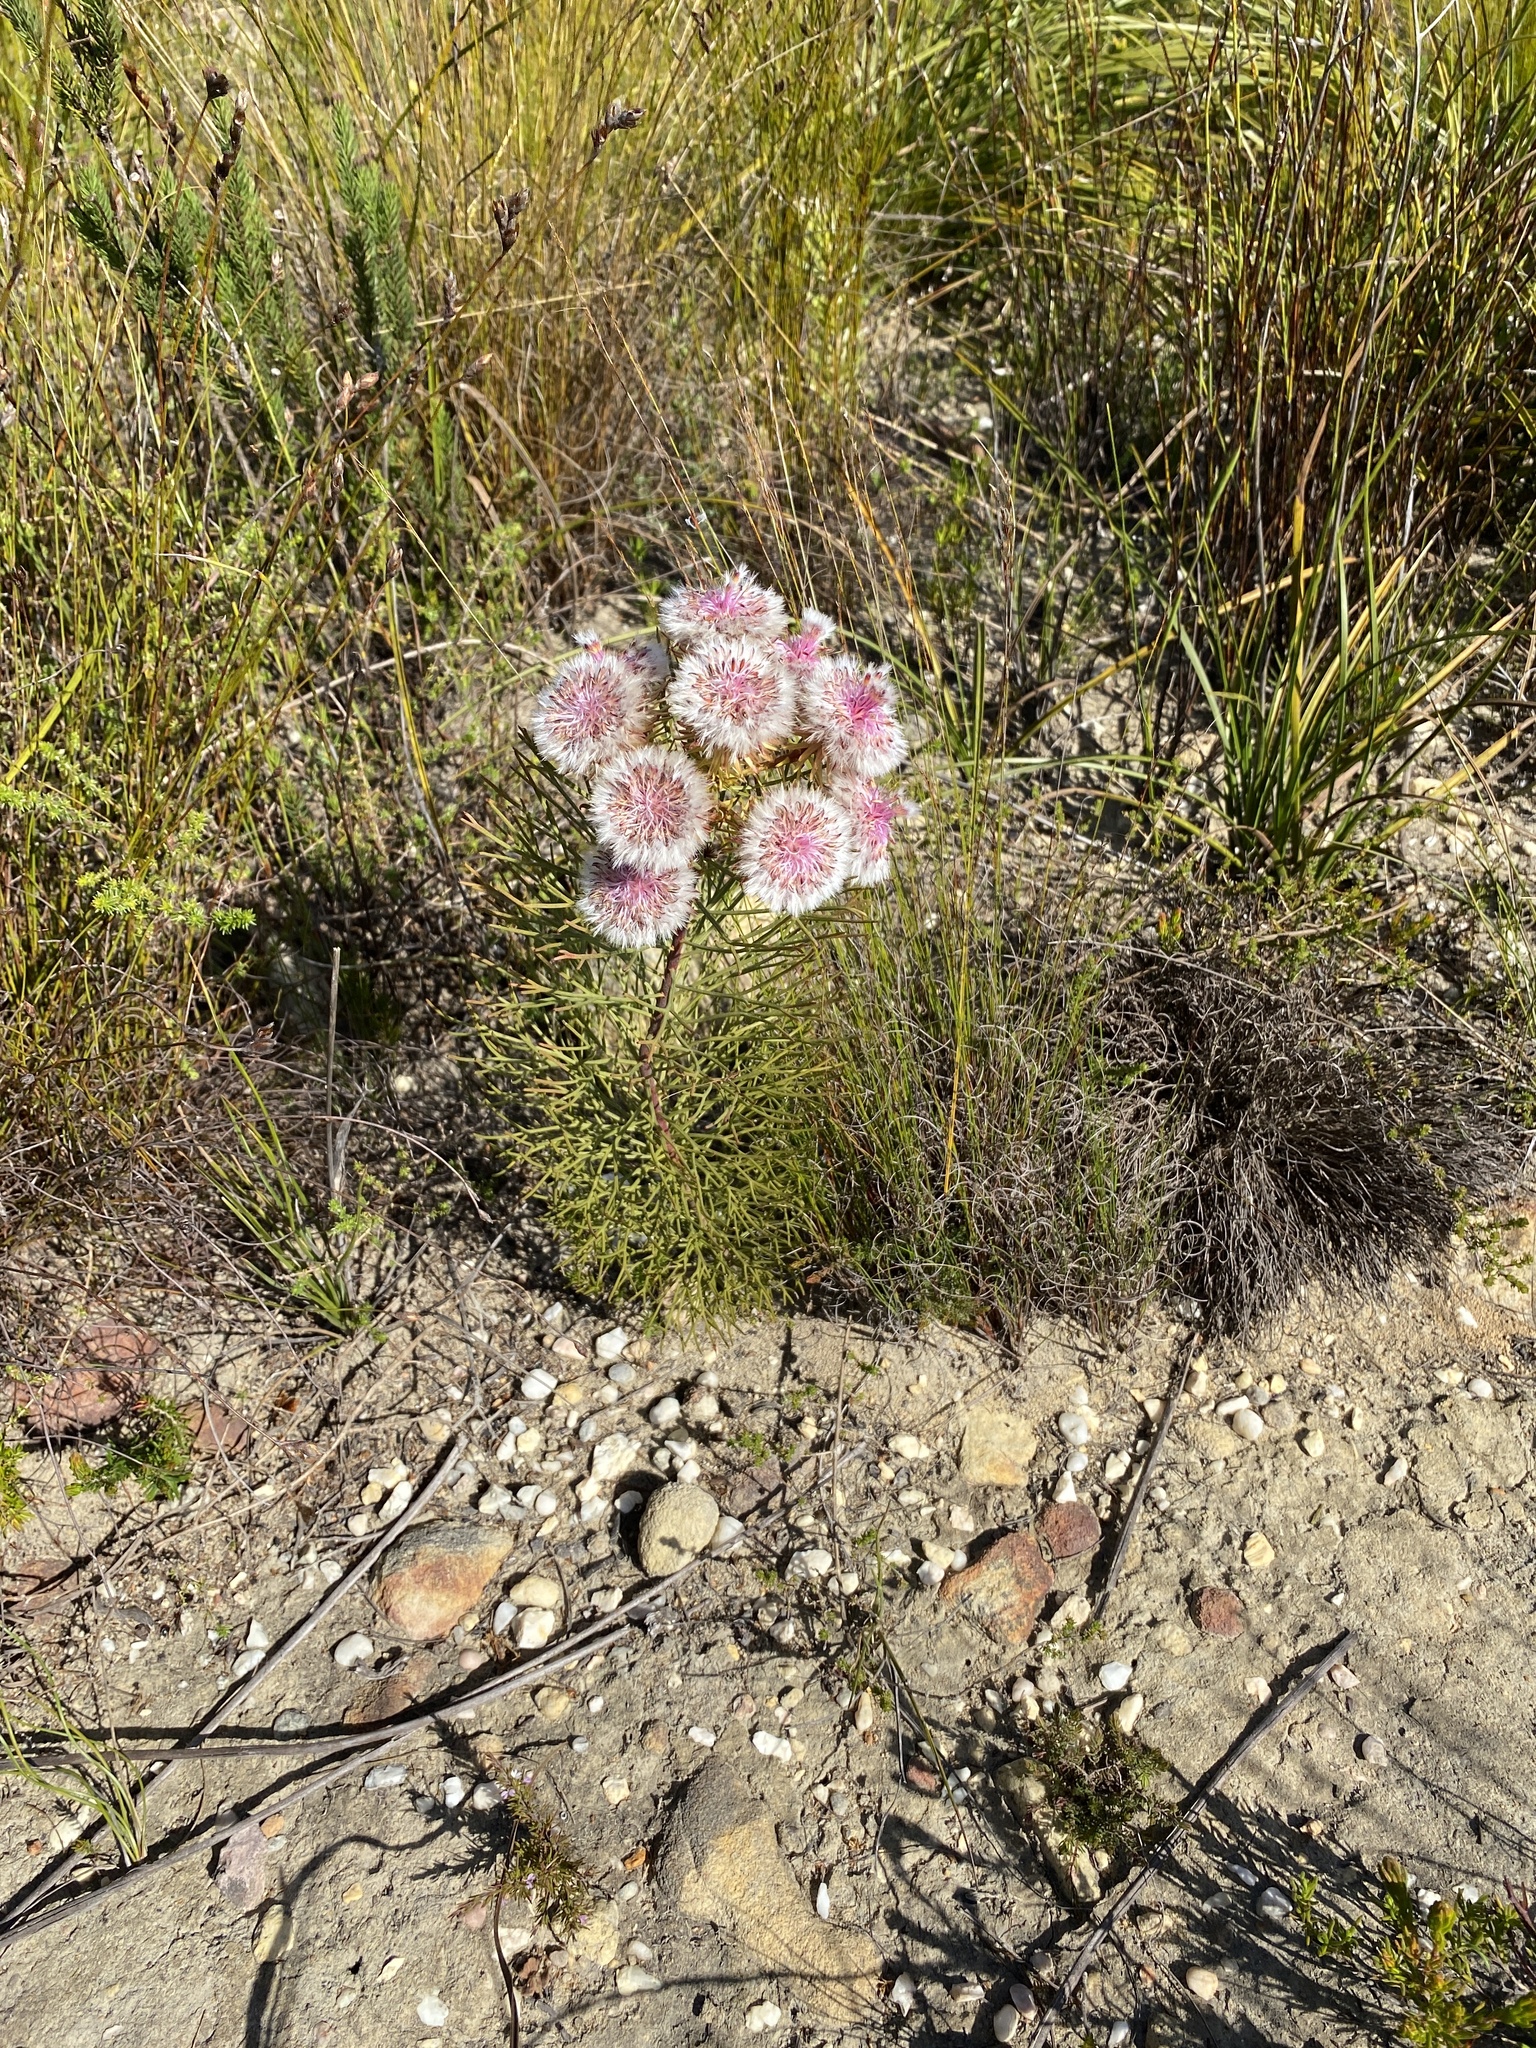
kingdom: Plantae
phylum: Tracheophyta
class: Magnoliopsida
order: Proteales
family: Proteaceae
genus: Serruria
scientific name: Serruria phylicoides
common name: Bearded spiderhead
